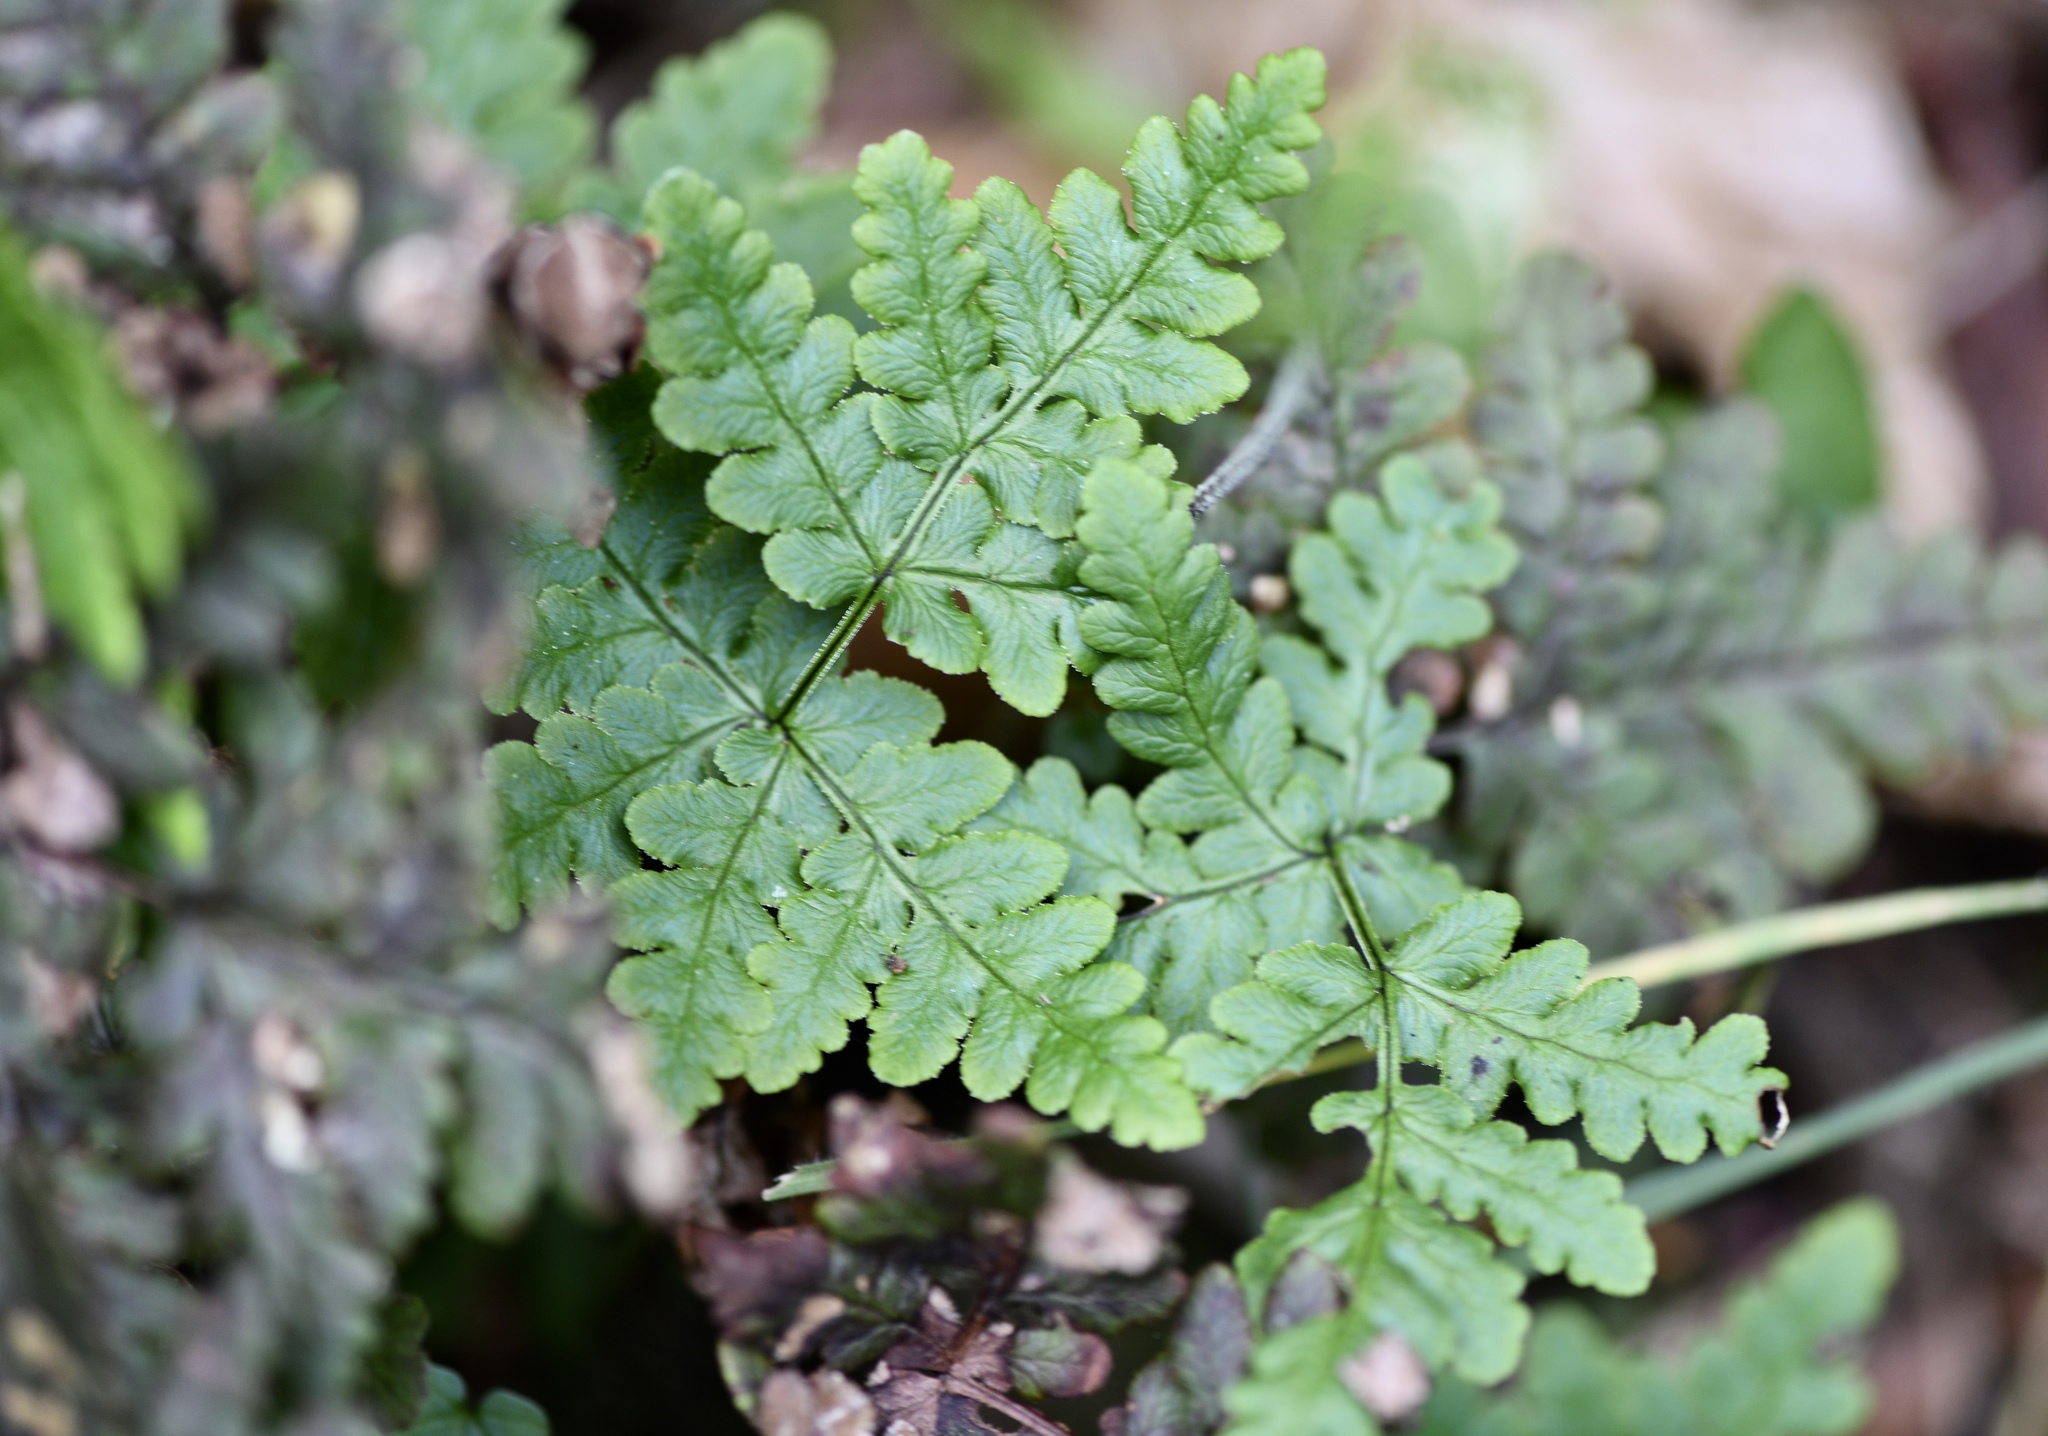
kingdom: Plantae
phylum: Tracheophyta
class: Polypodiopsida
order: Polypodiales
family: Pteridaceae
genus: Pentagramma
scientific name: Pentagramma triangularis
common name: Gold fern
